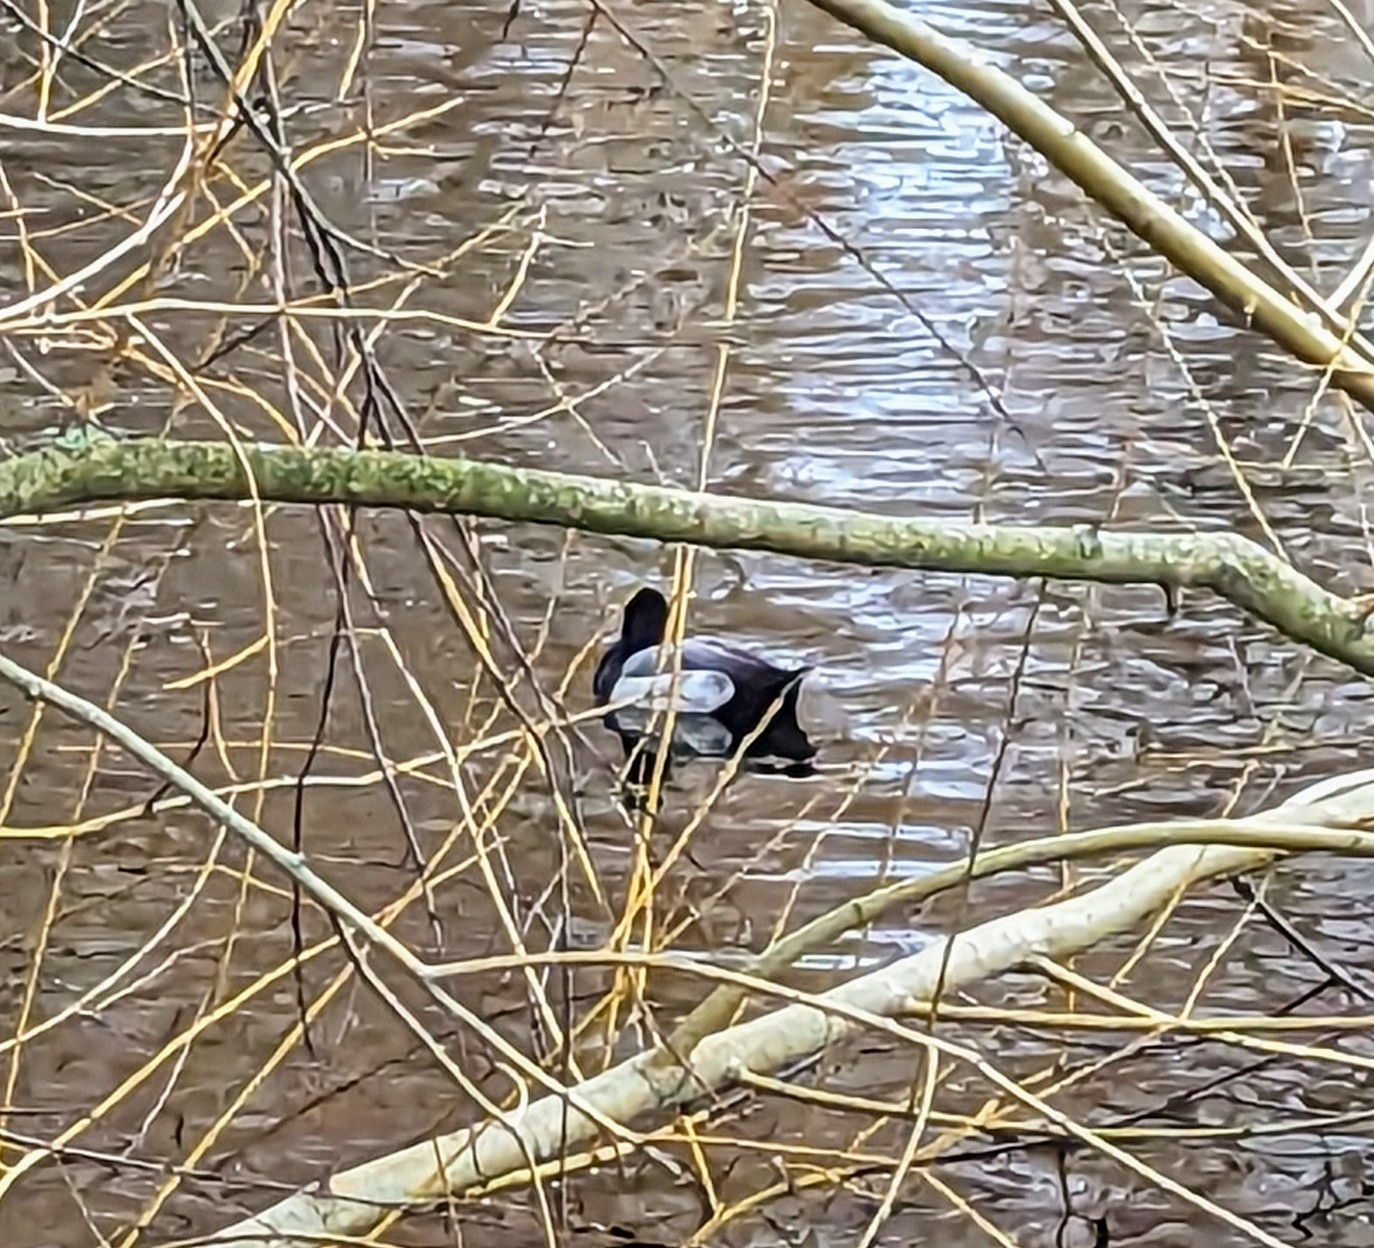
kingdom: Animalia
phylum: Chordata
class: Aves
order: Anseriformes
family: Anatidae
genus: Aythya
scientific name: Aythya affinis
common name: Lesser scaup
